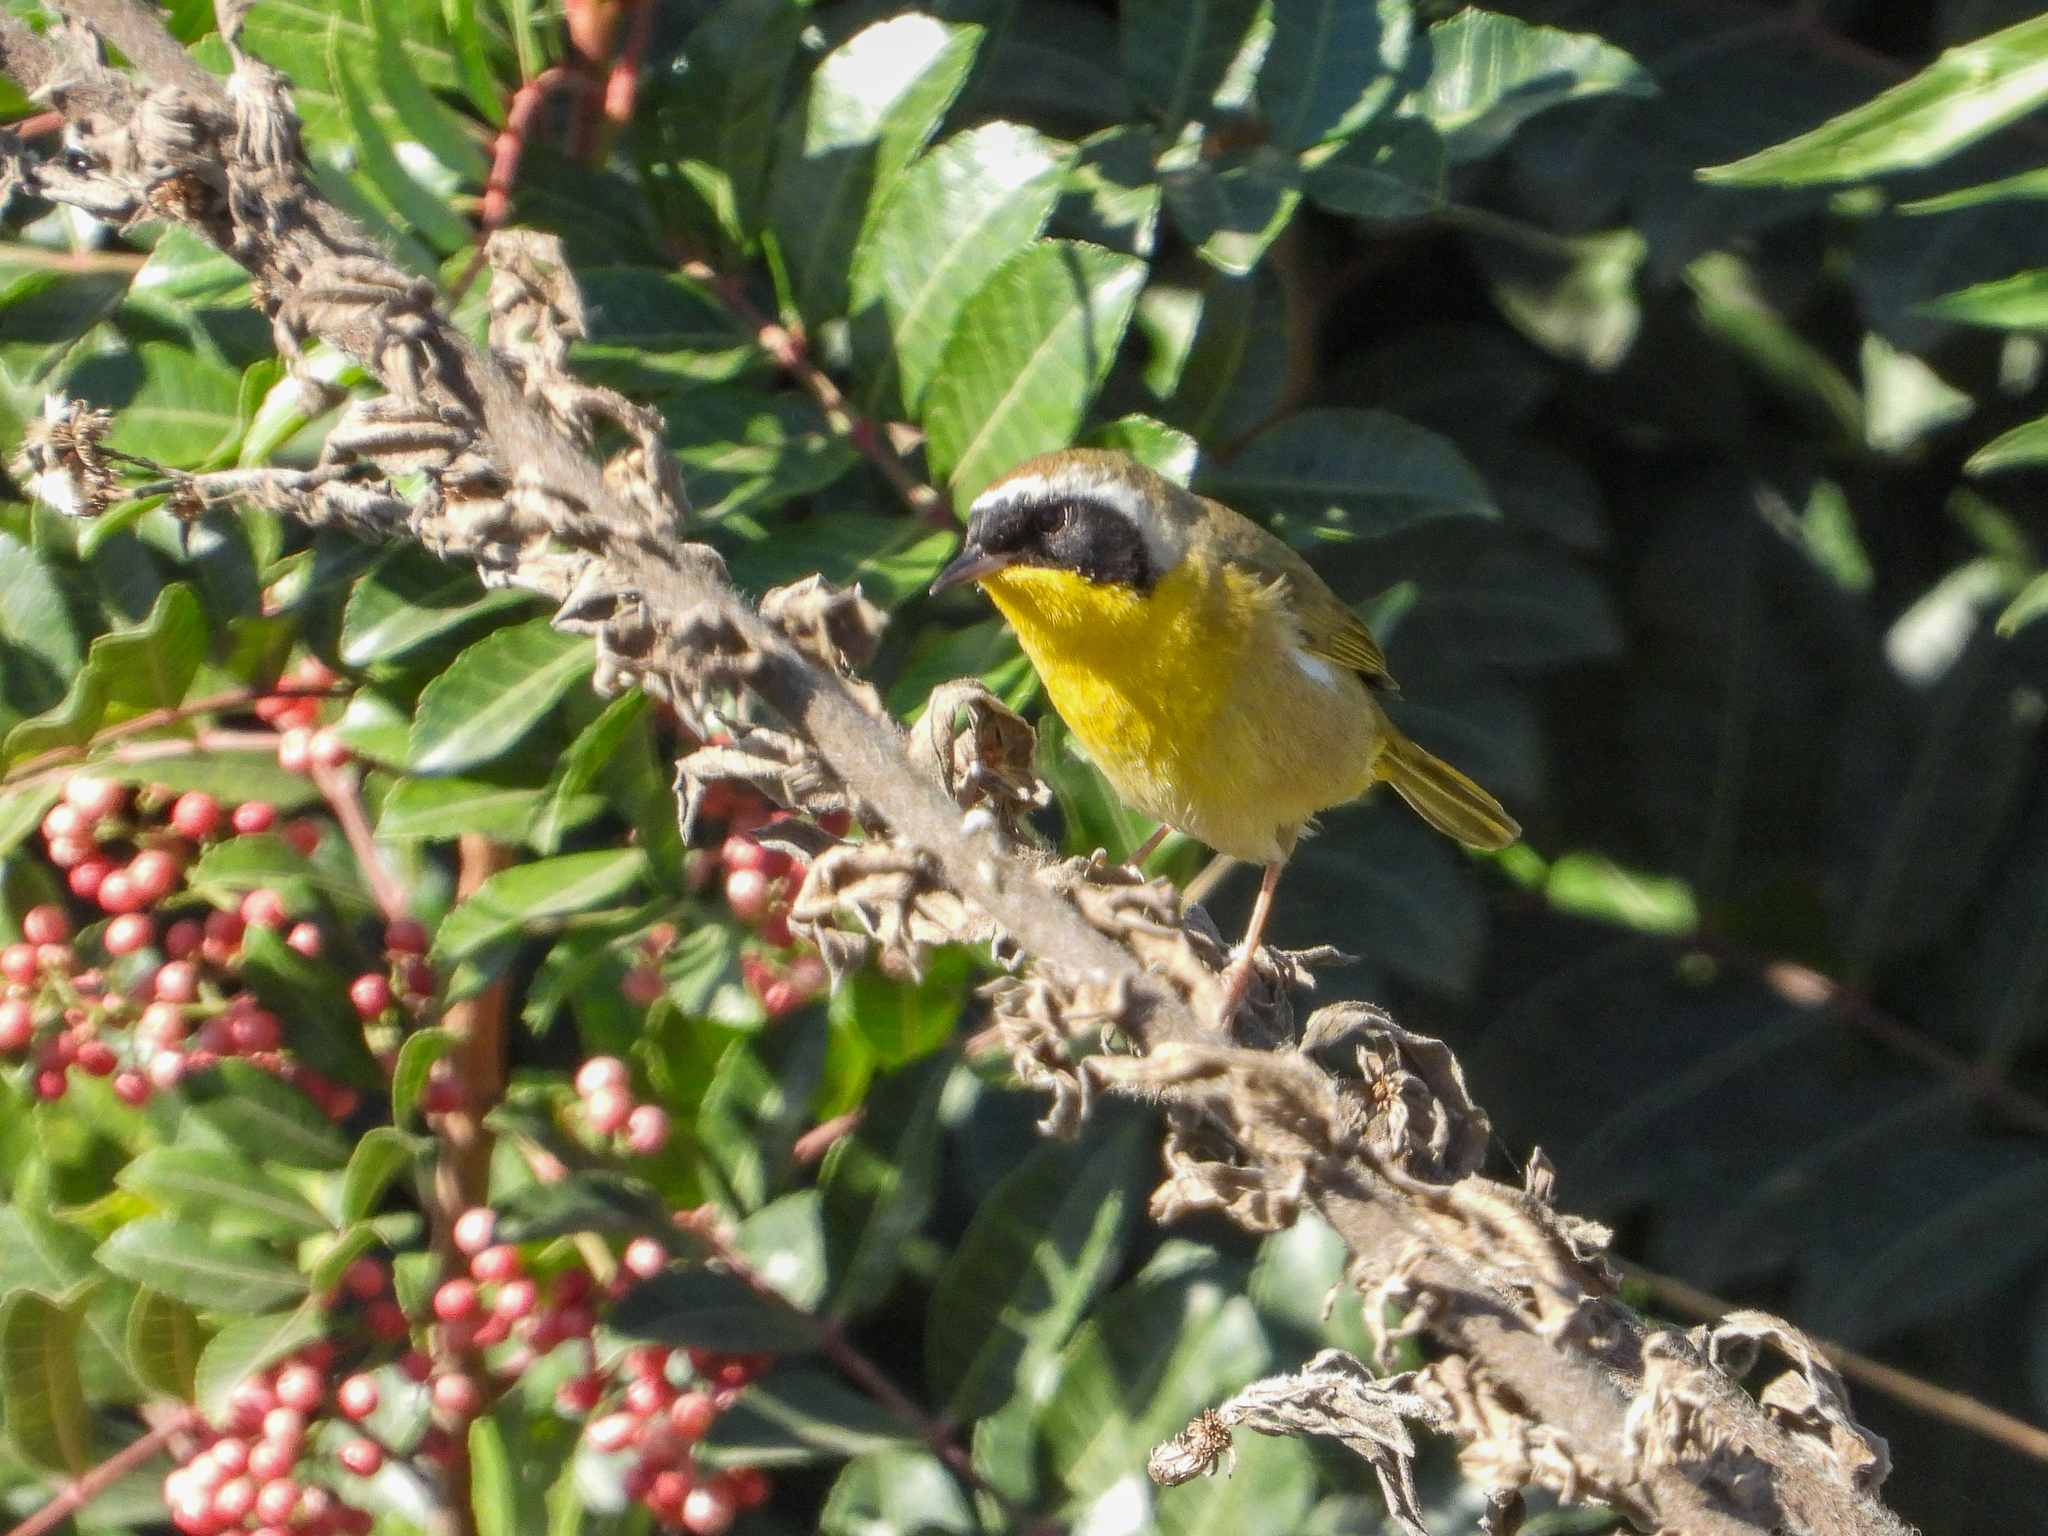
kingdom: Animalia
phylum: Chordata
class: Aves
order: Passeriformes
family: Parulidae
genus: Geothlypis
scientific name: Geothlypis trichas
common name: Common yellowthroat
